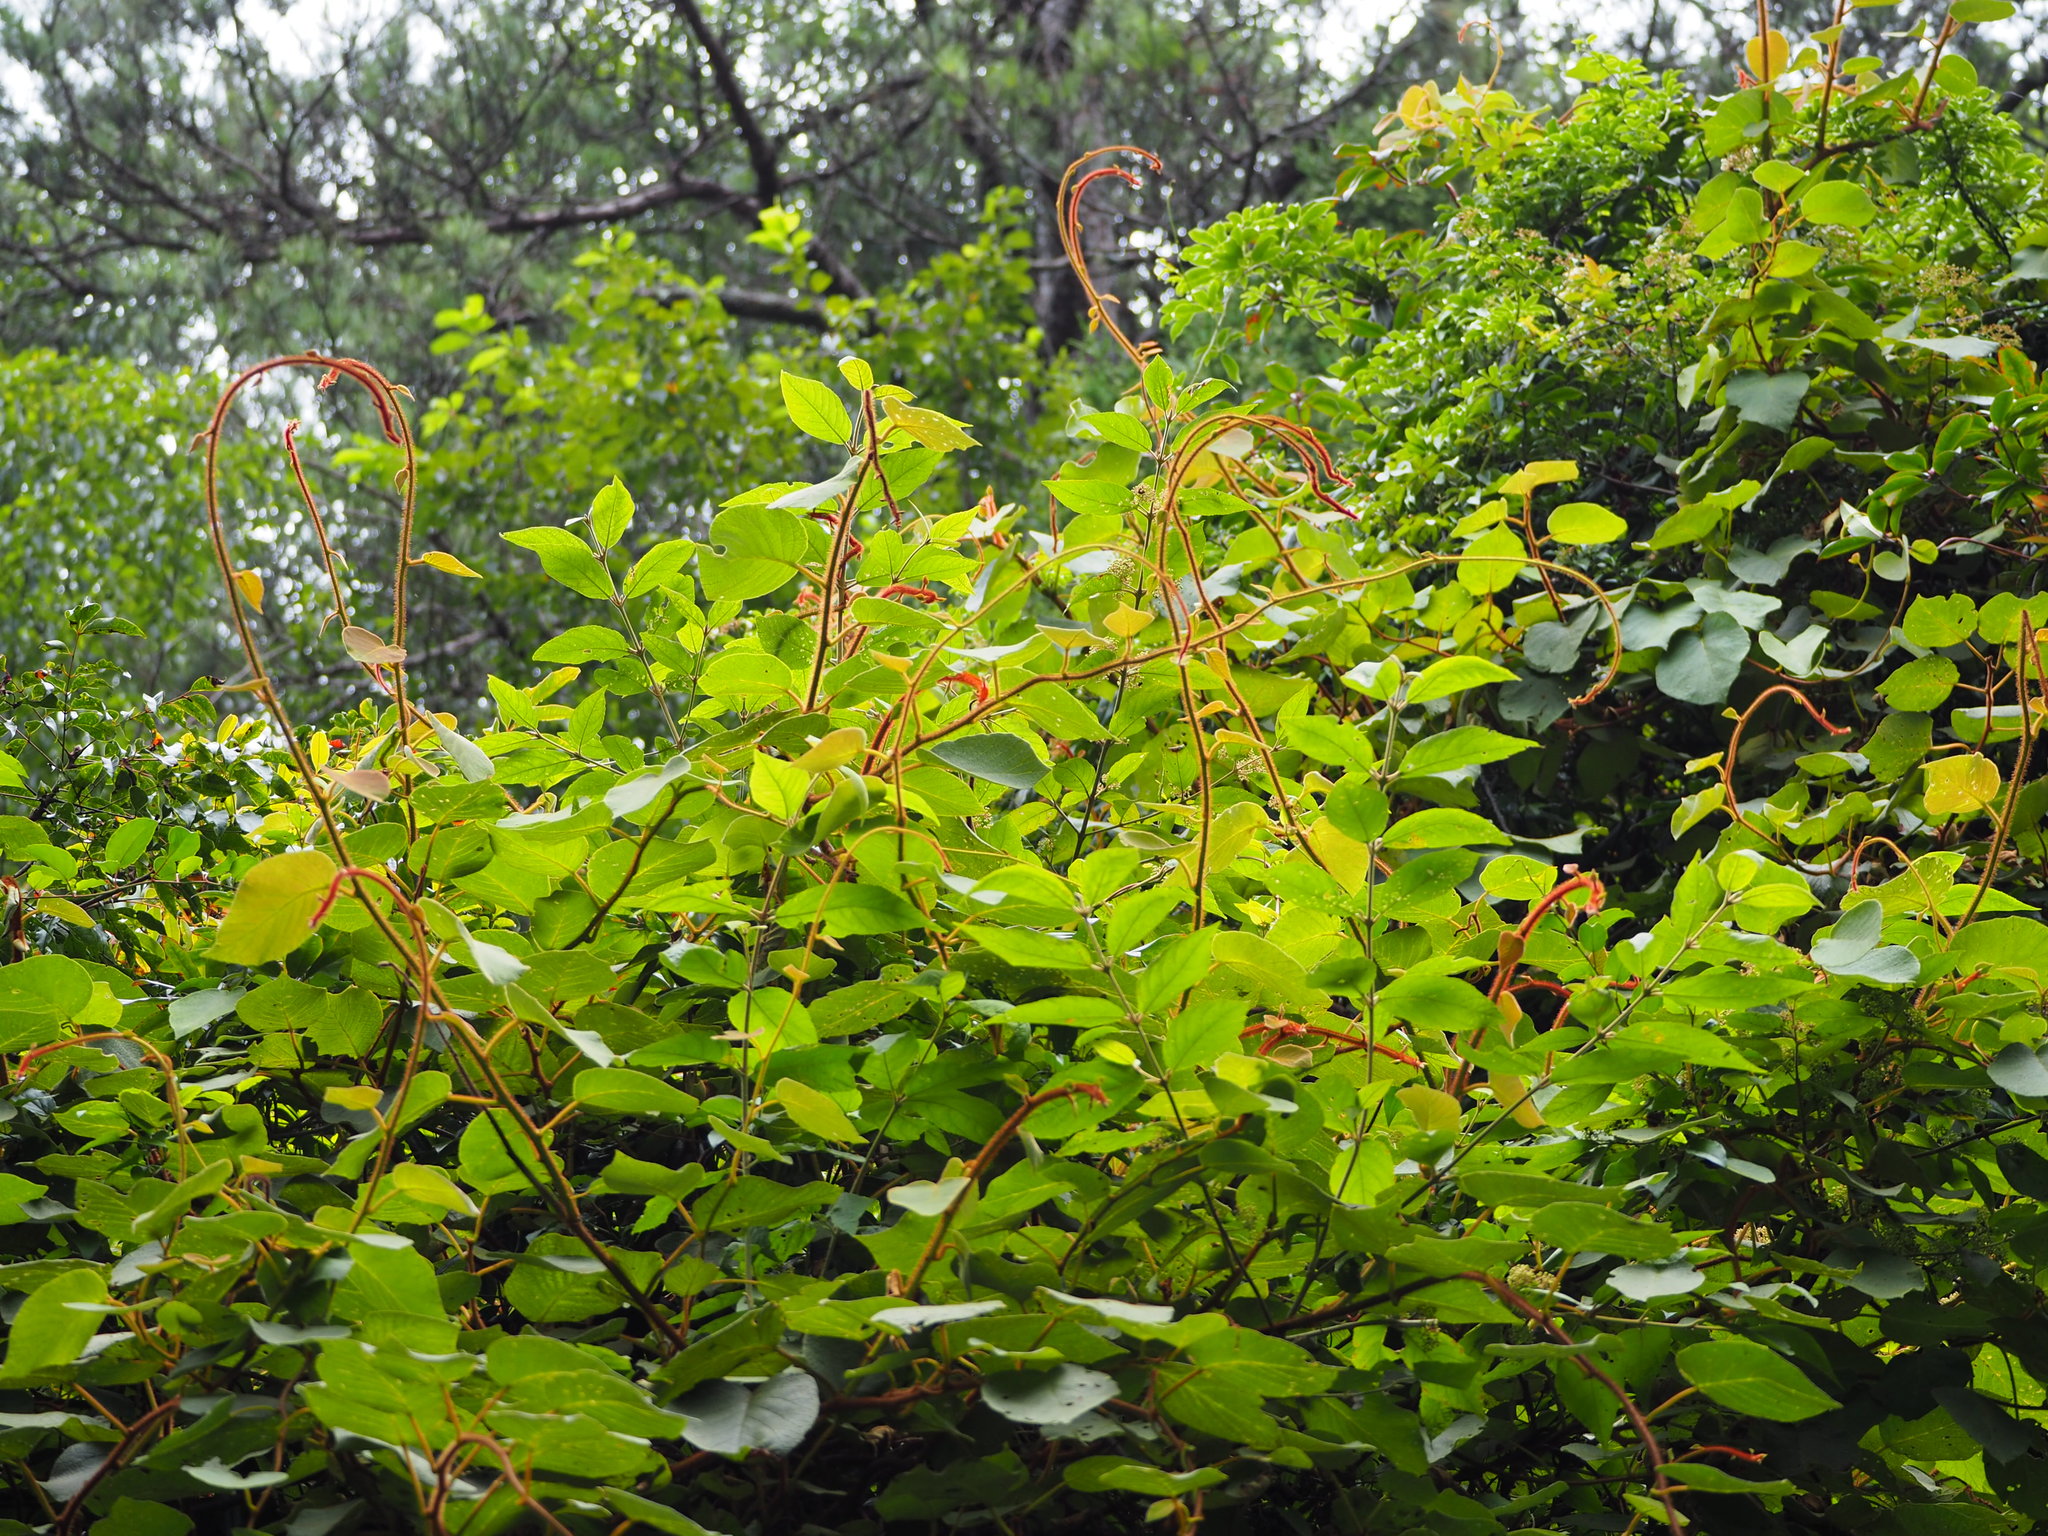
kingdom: Plantae
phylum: Tracheophyta
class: Magnoliopsida
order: Ericales
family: Actinidiaceae
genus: Actinidia
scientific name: Actinidia chinensis
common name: Kiwi
